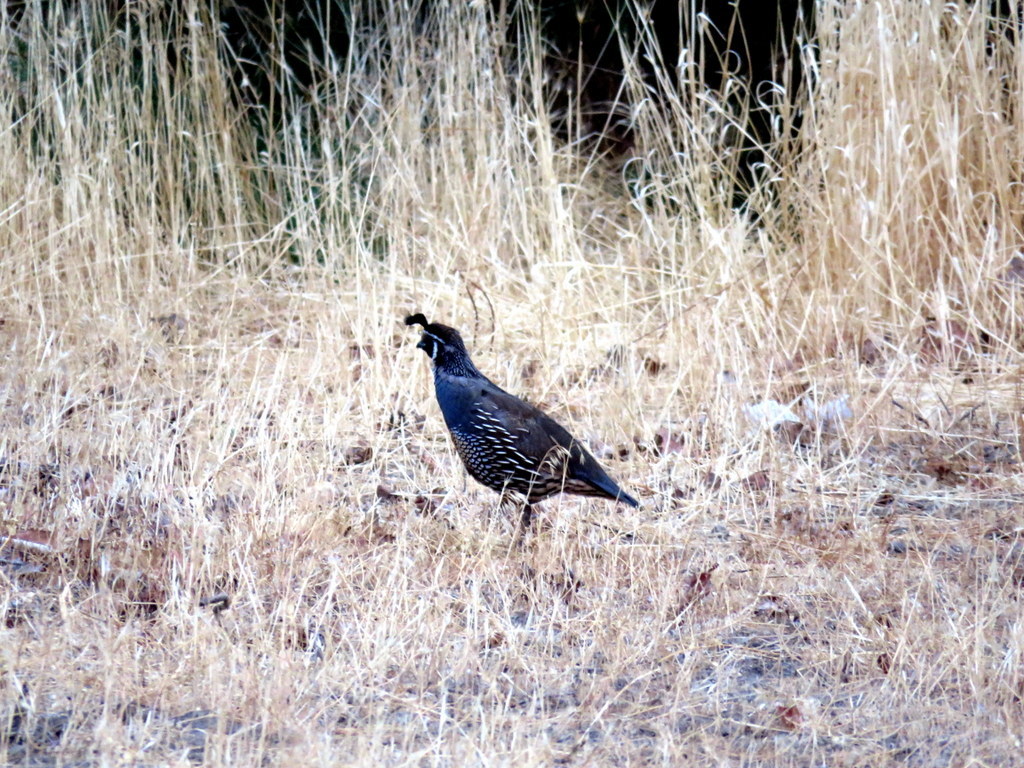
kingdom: Animalia
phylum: Chordata
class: Aves
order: Galliformes
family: Odontophoridae
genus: Callipepla
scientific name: Callipepla californica
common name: California quail
